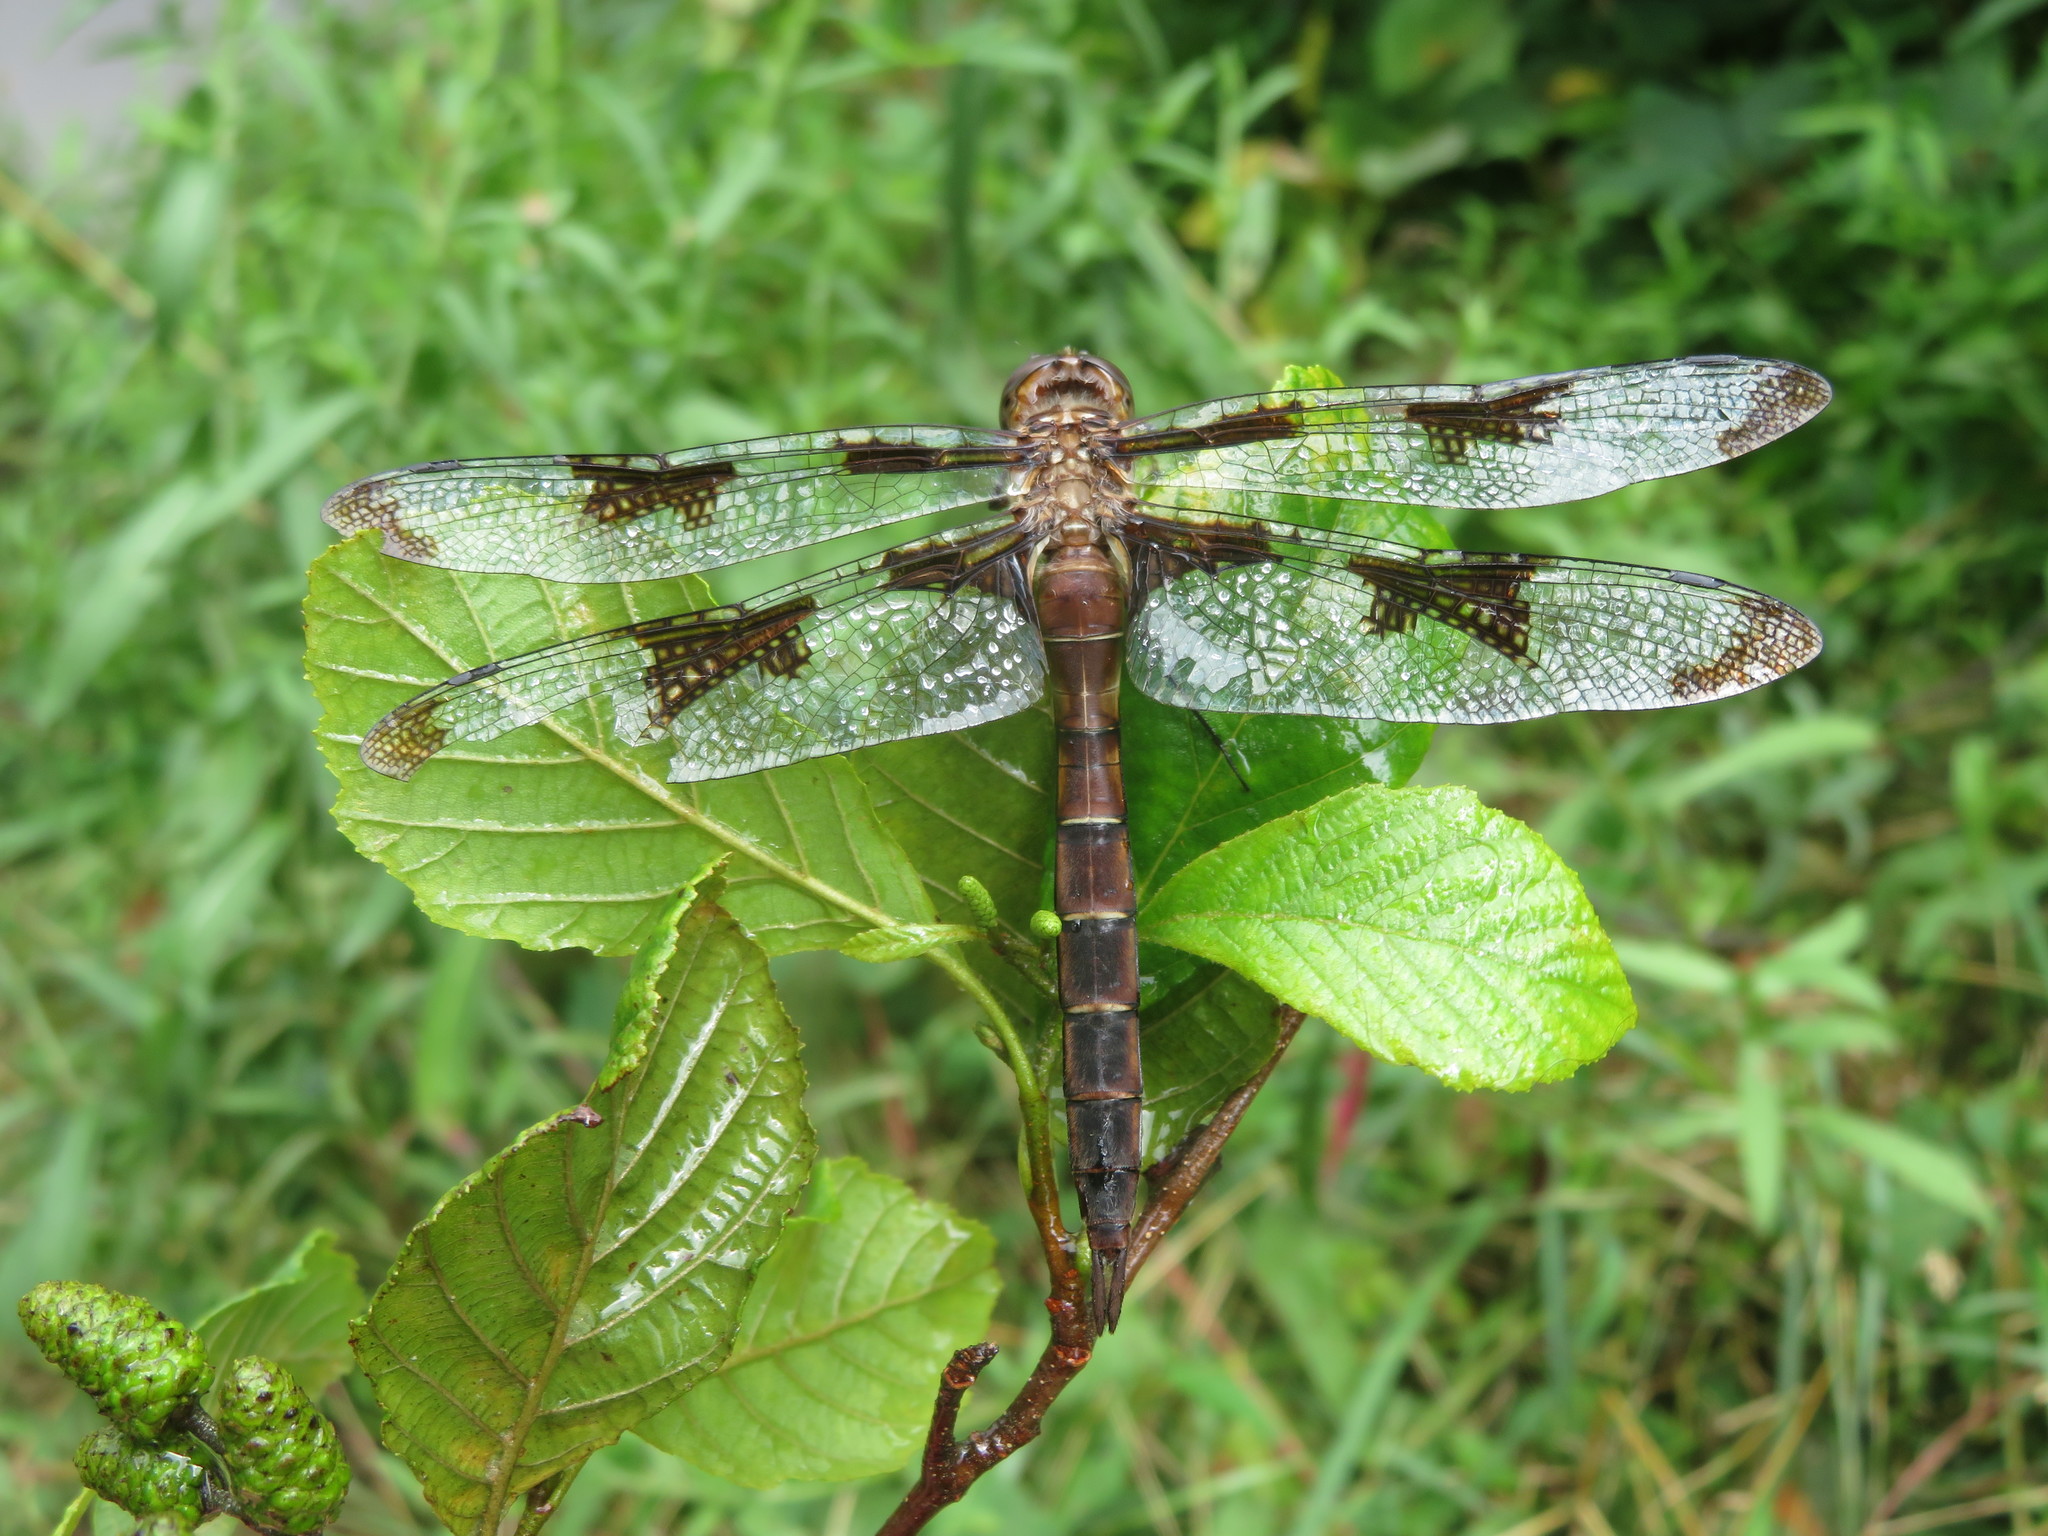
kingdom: Animalia
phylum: Arthropoda
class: Insecta
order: Odonata
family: Corduliidae
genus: Epitheca
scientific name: Epitheca princeps
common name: Prince baskettail
